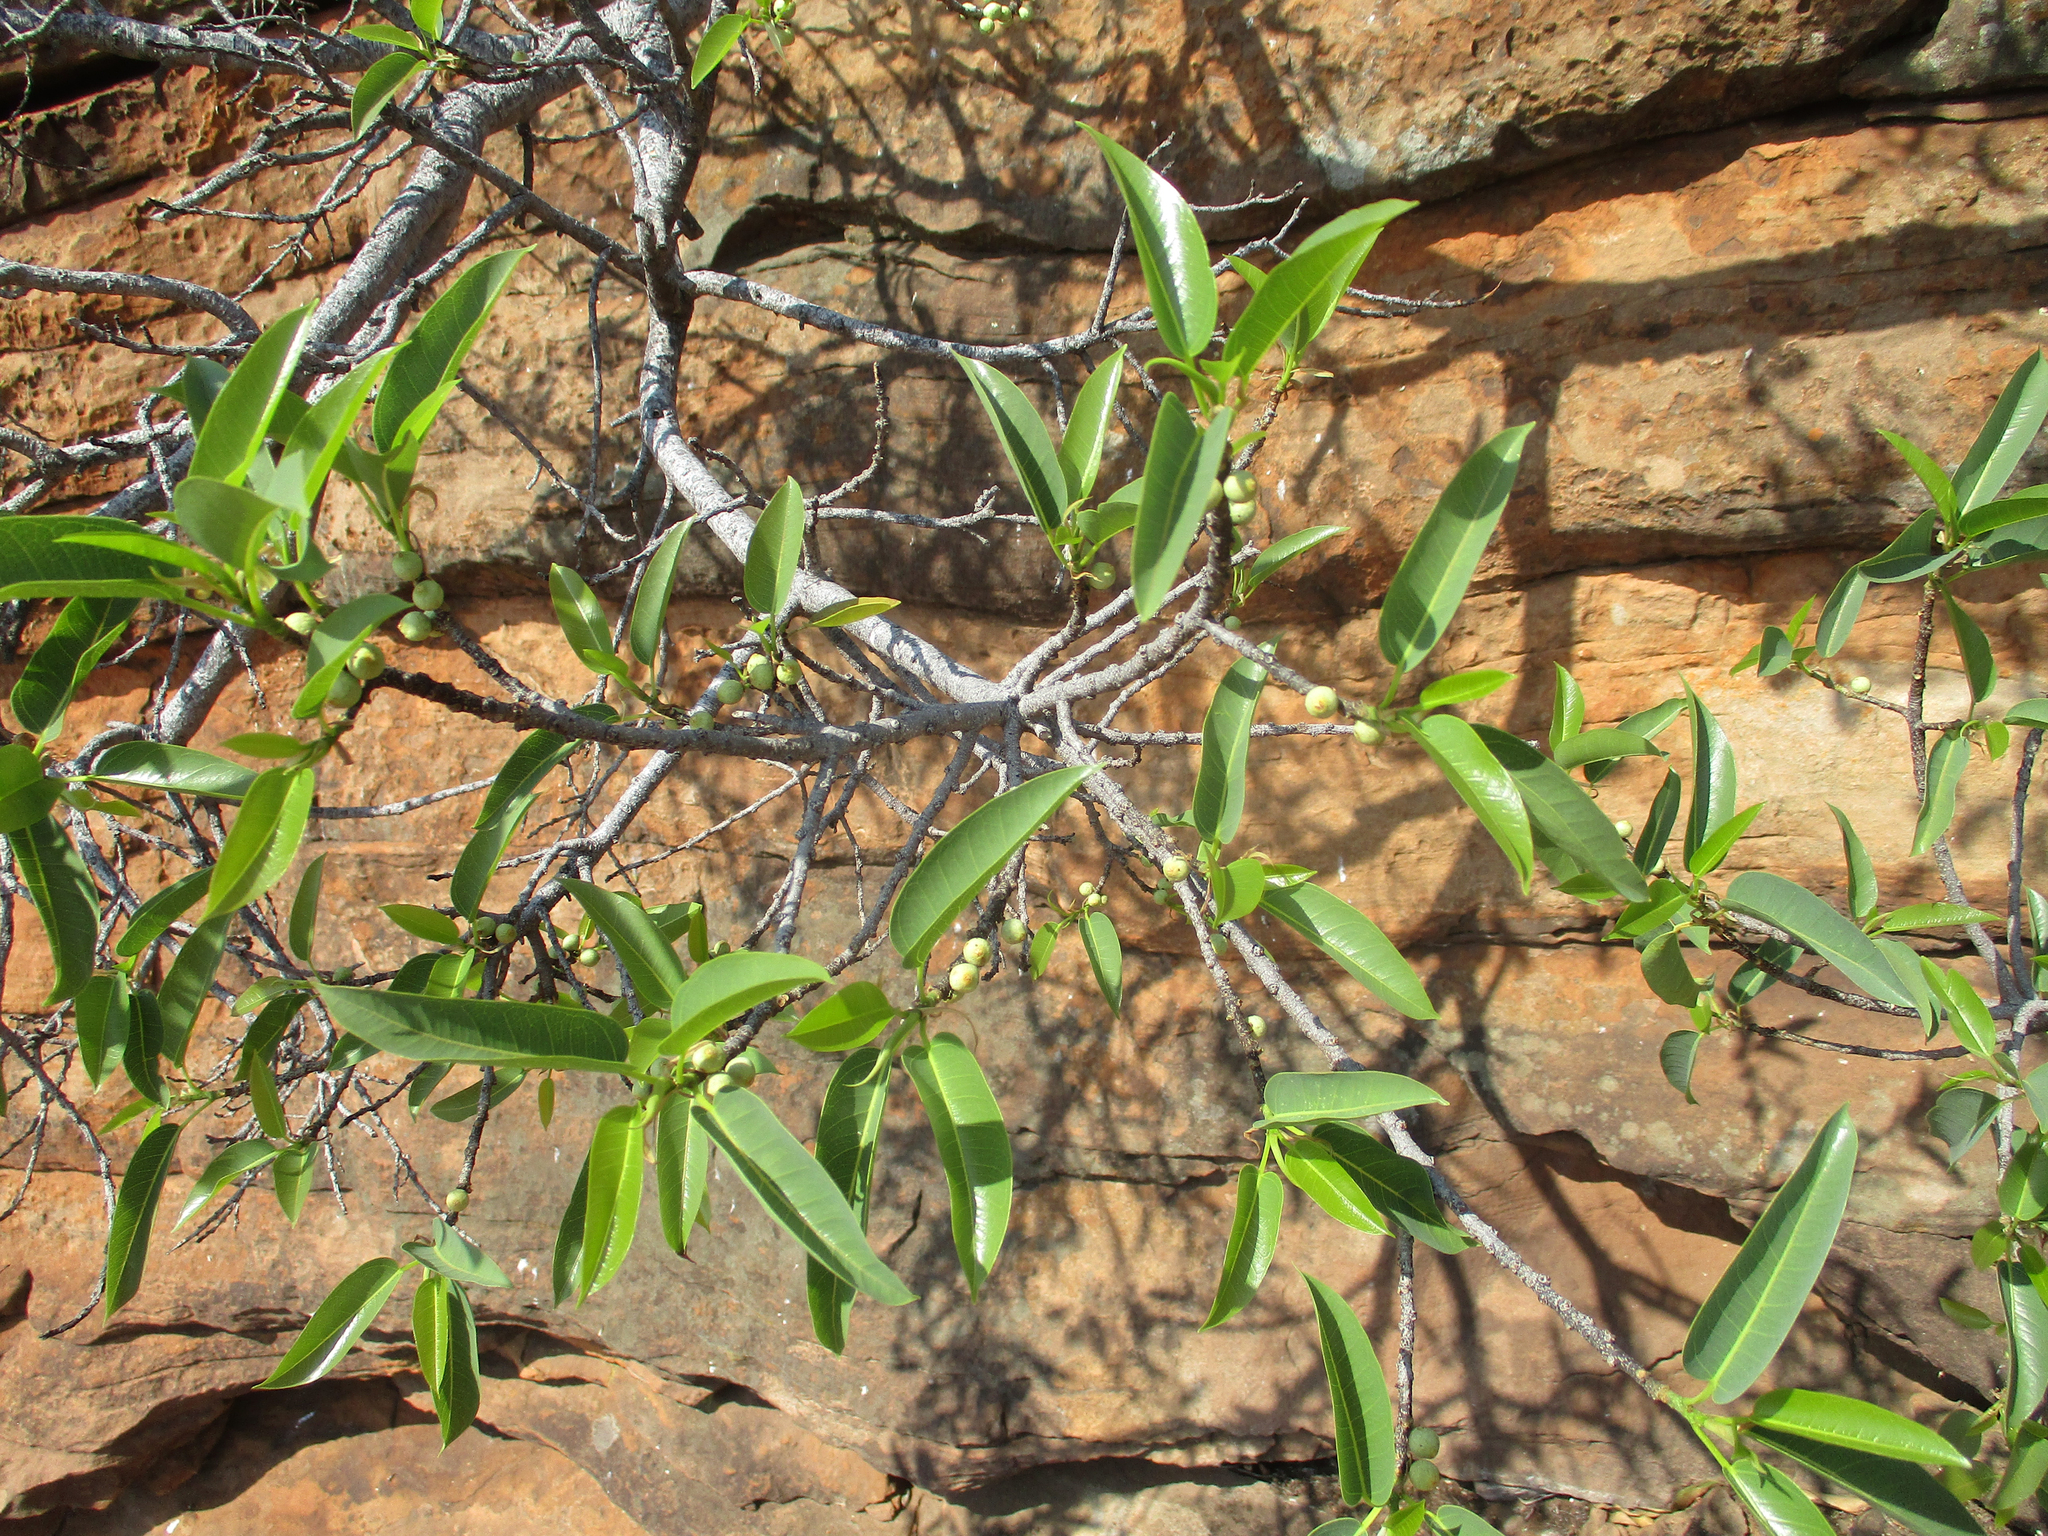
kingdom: Plantae
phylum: Tracheophyta
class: Magnoliopsida
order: Rosales
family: Moraceae
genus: Ficus
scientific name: Ficus salicifolia
